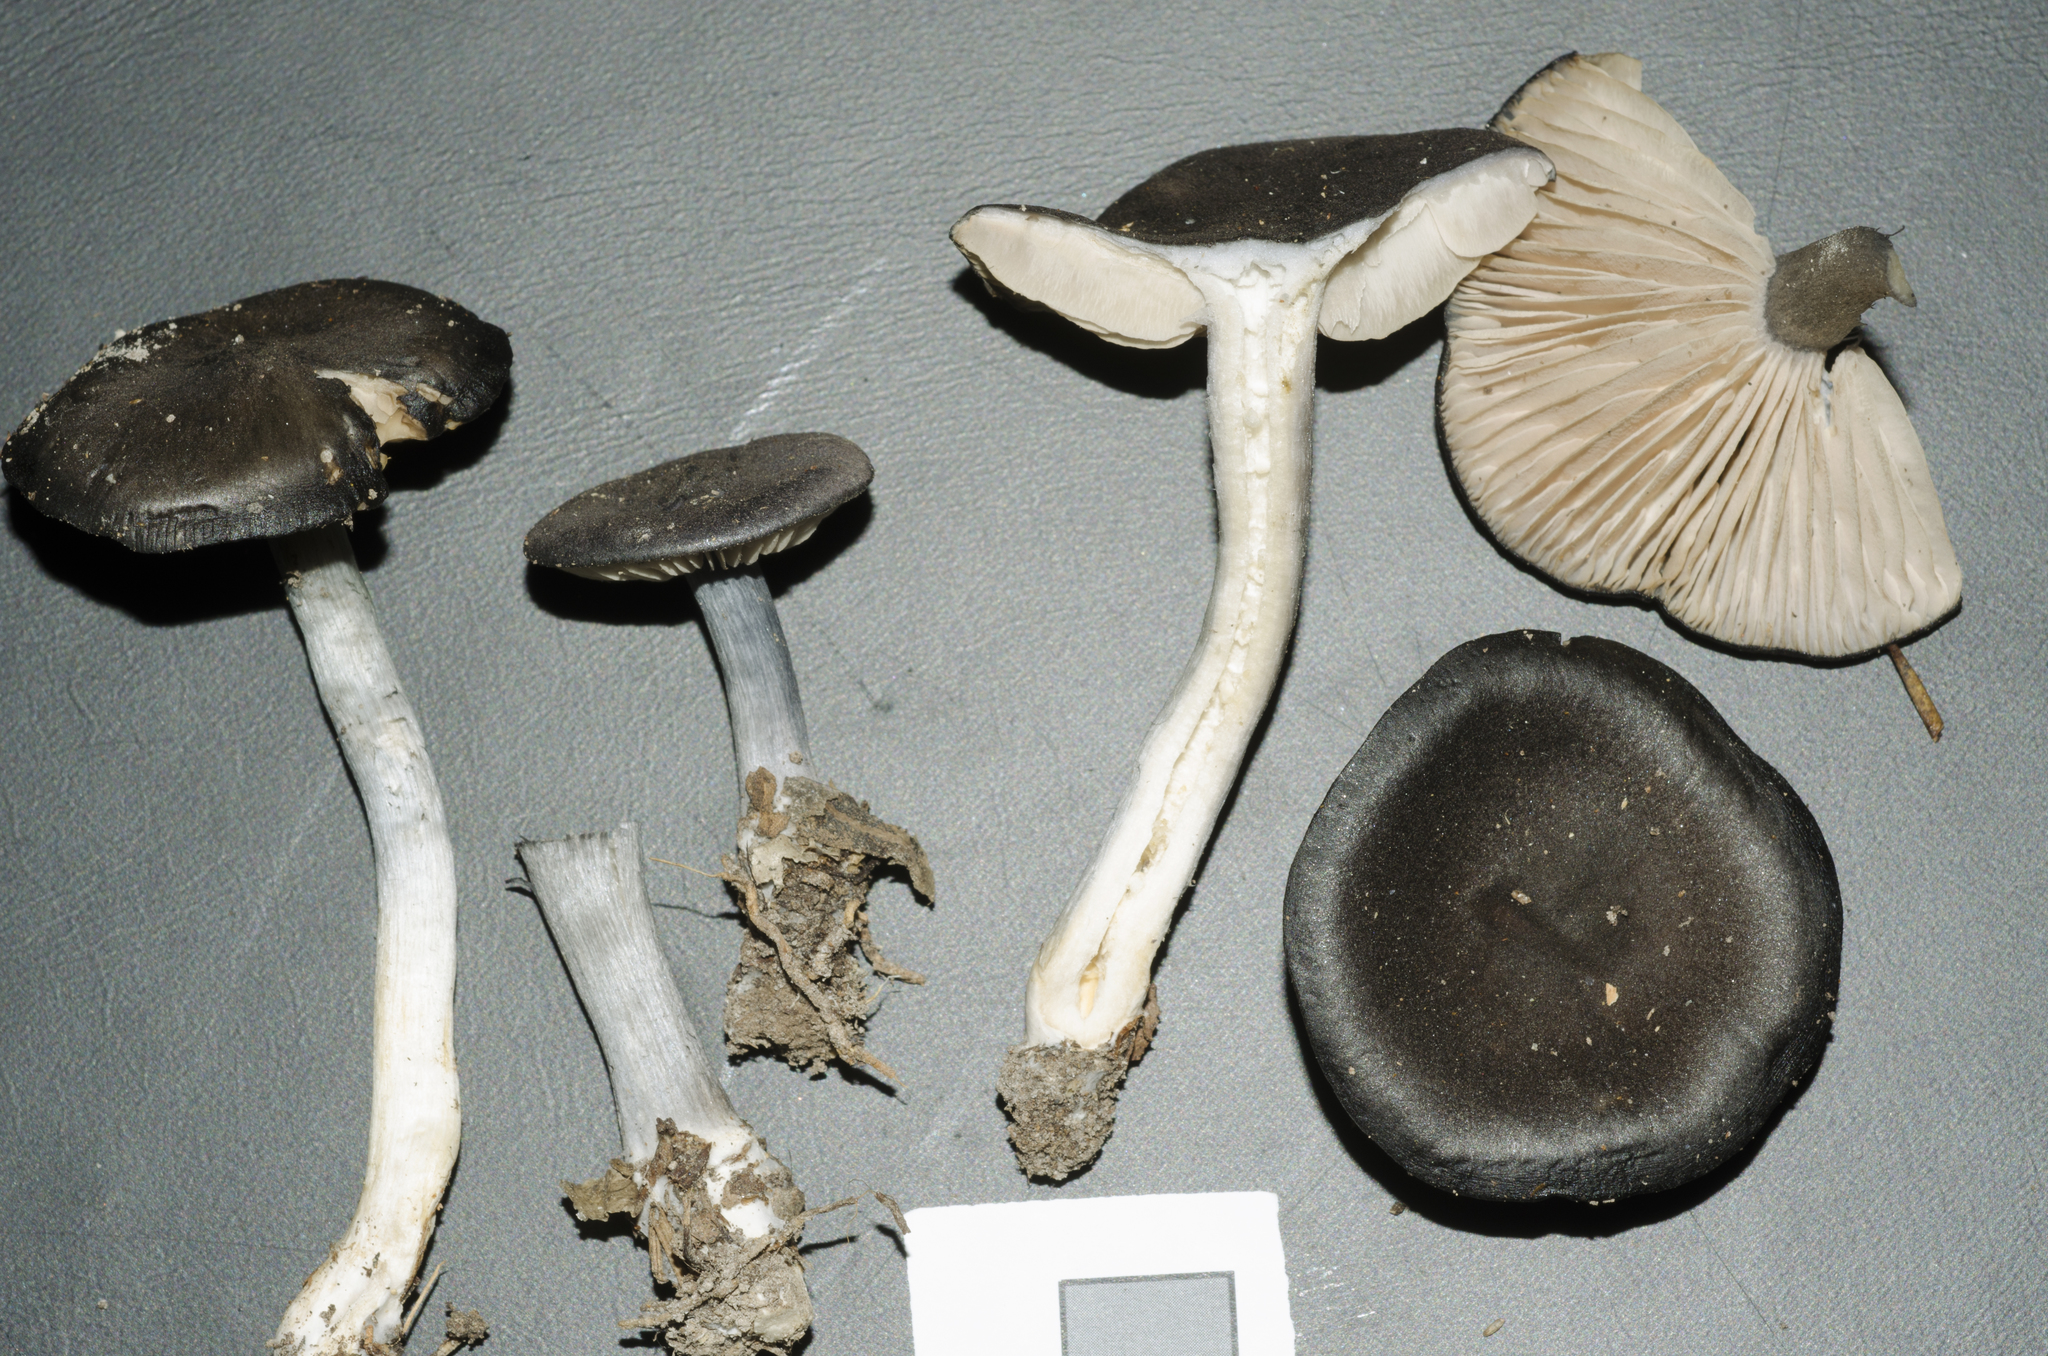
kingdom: Fungi
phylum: Basidiomycota
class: Agaricomycetes
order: Agaricales
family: Entolomataceae
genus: Entoloma
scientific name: Entoloma perbloxamii
